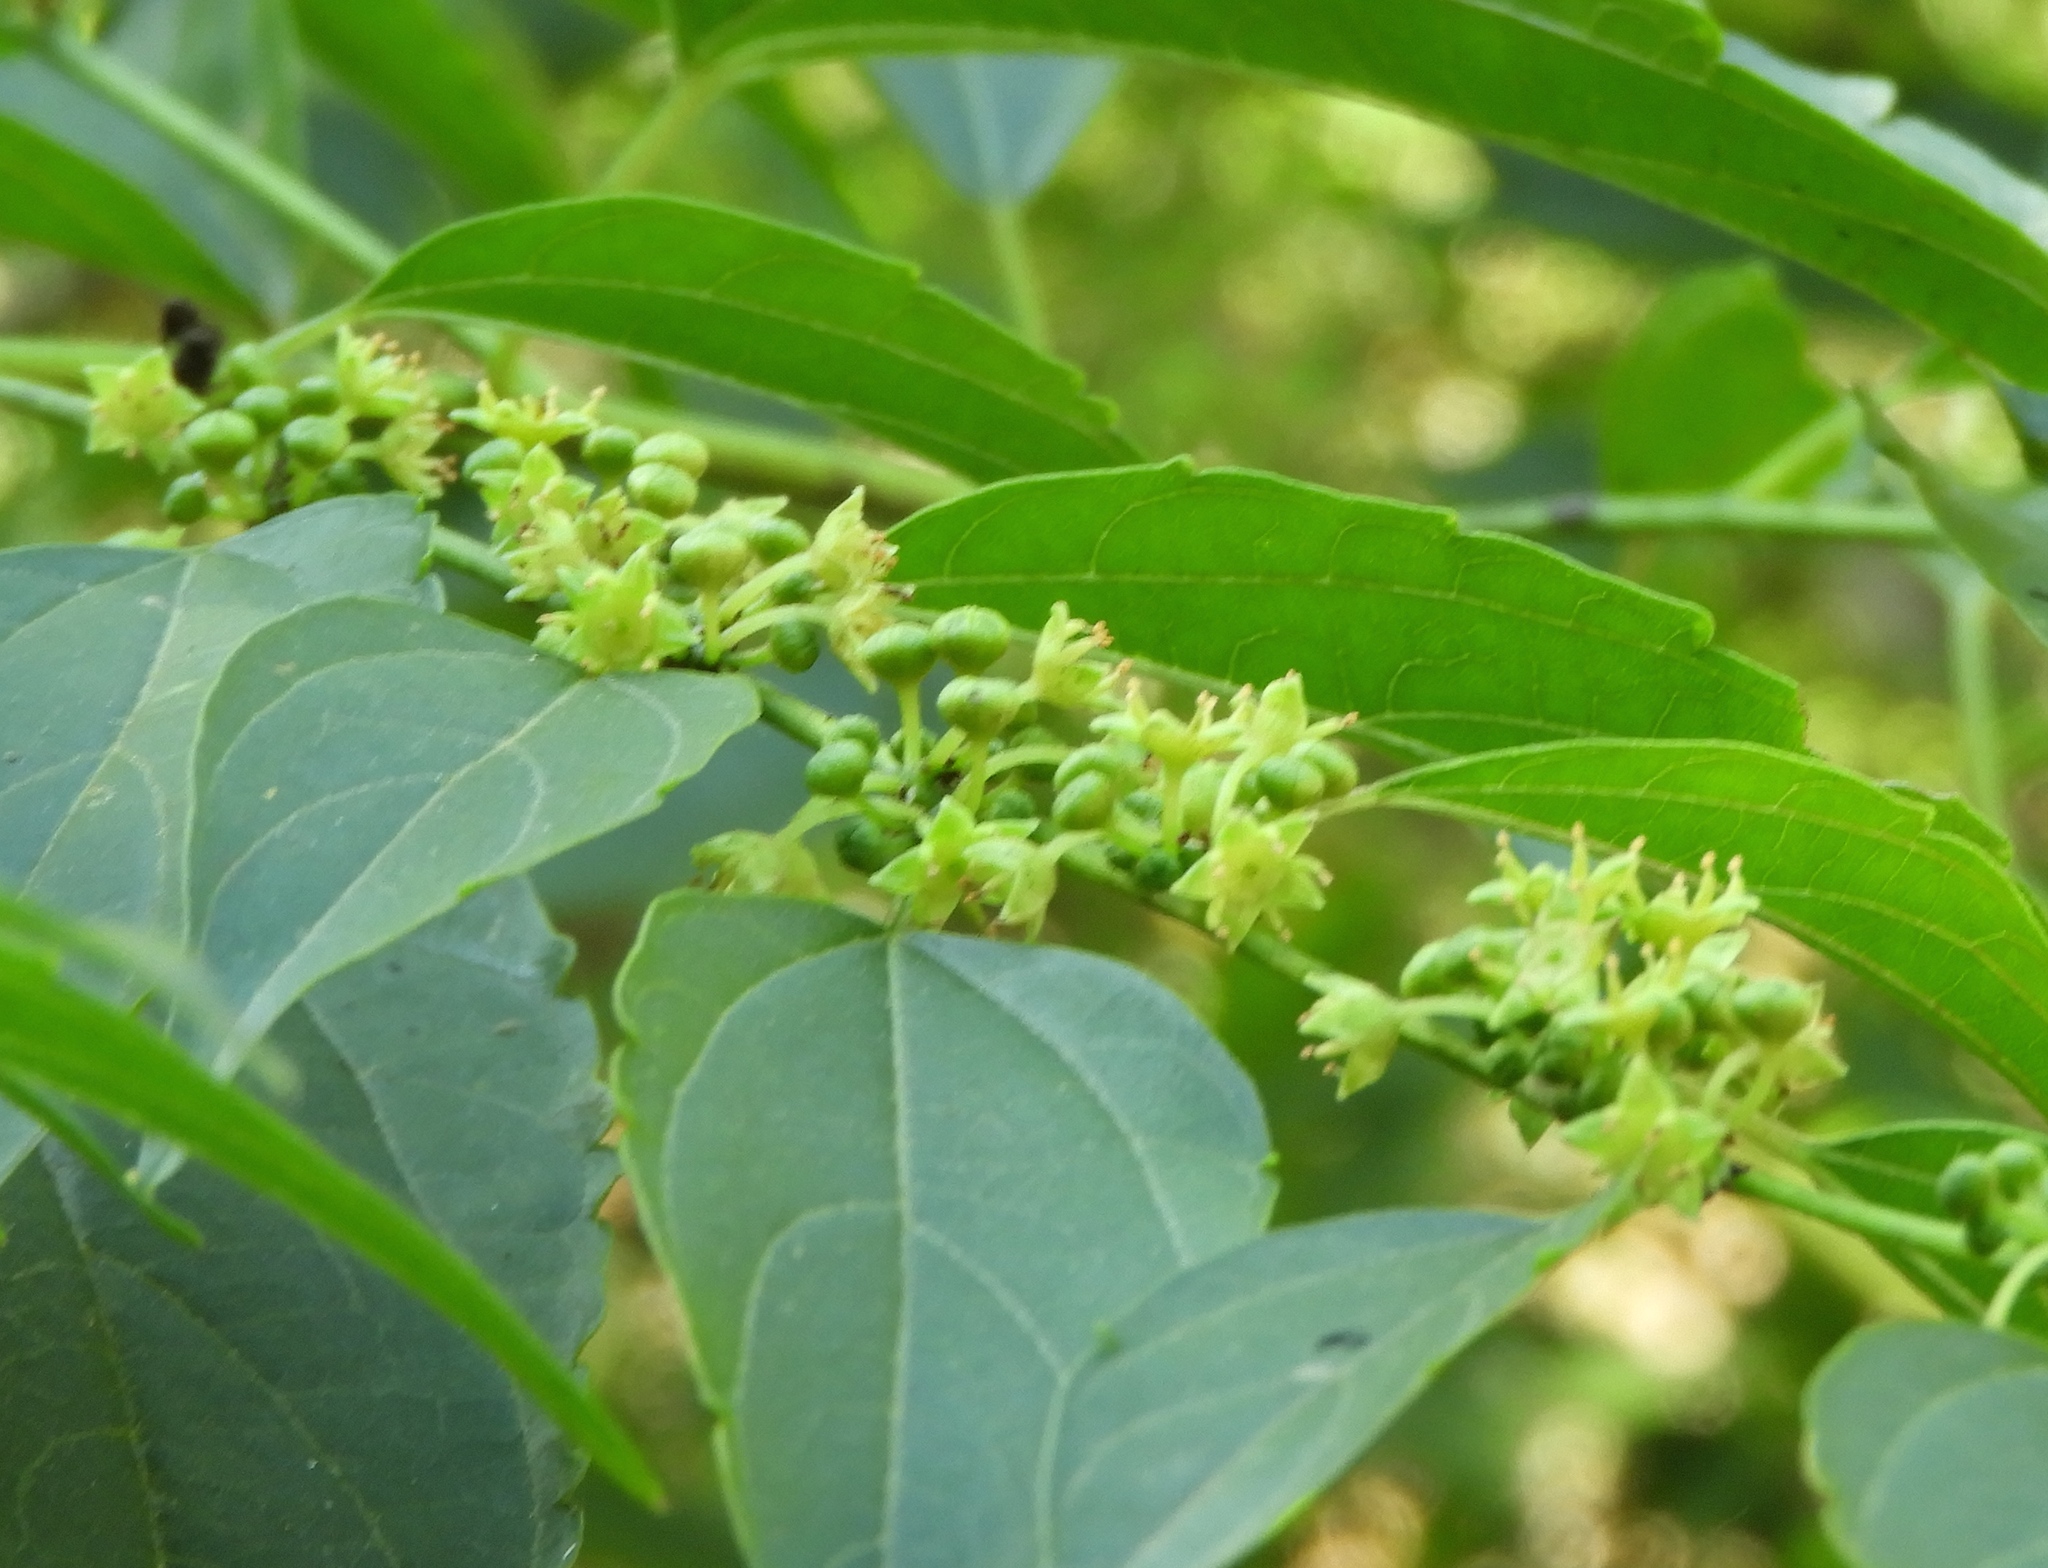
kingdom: Plantae
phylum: Tracheophyta
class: Magnoliopsida
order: Rosales
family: Rhamnaceae
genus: Colubrina
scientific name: Colubrina triflora
